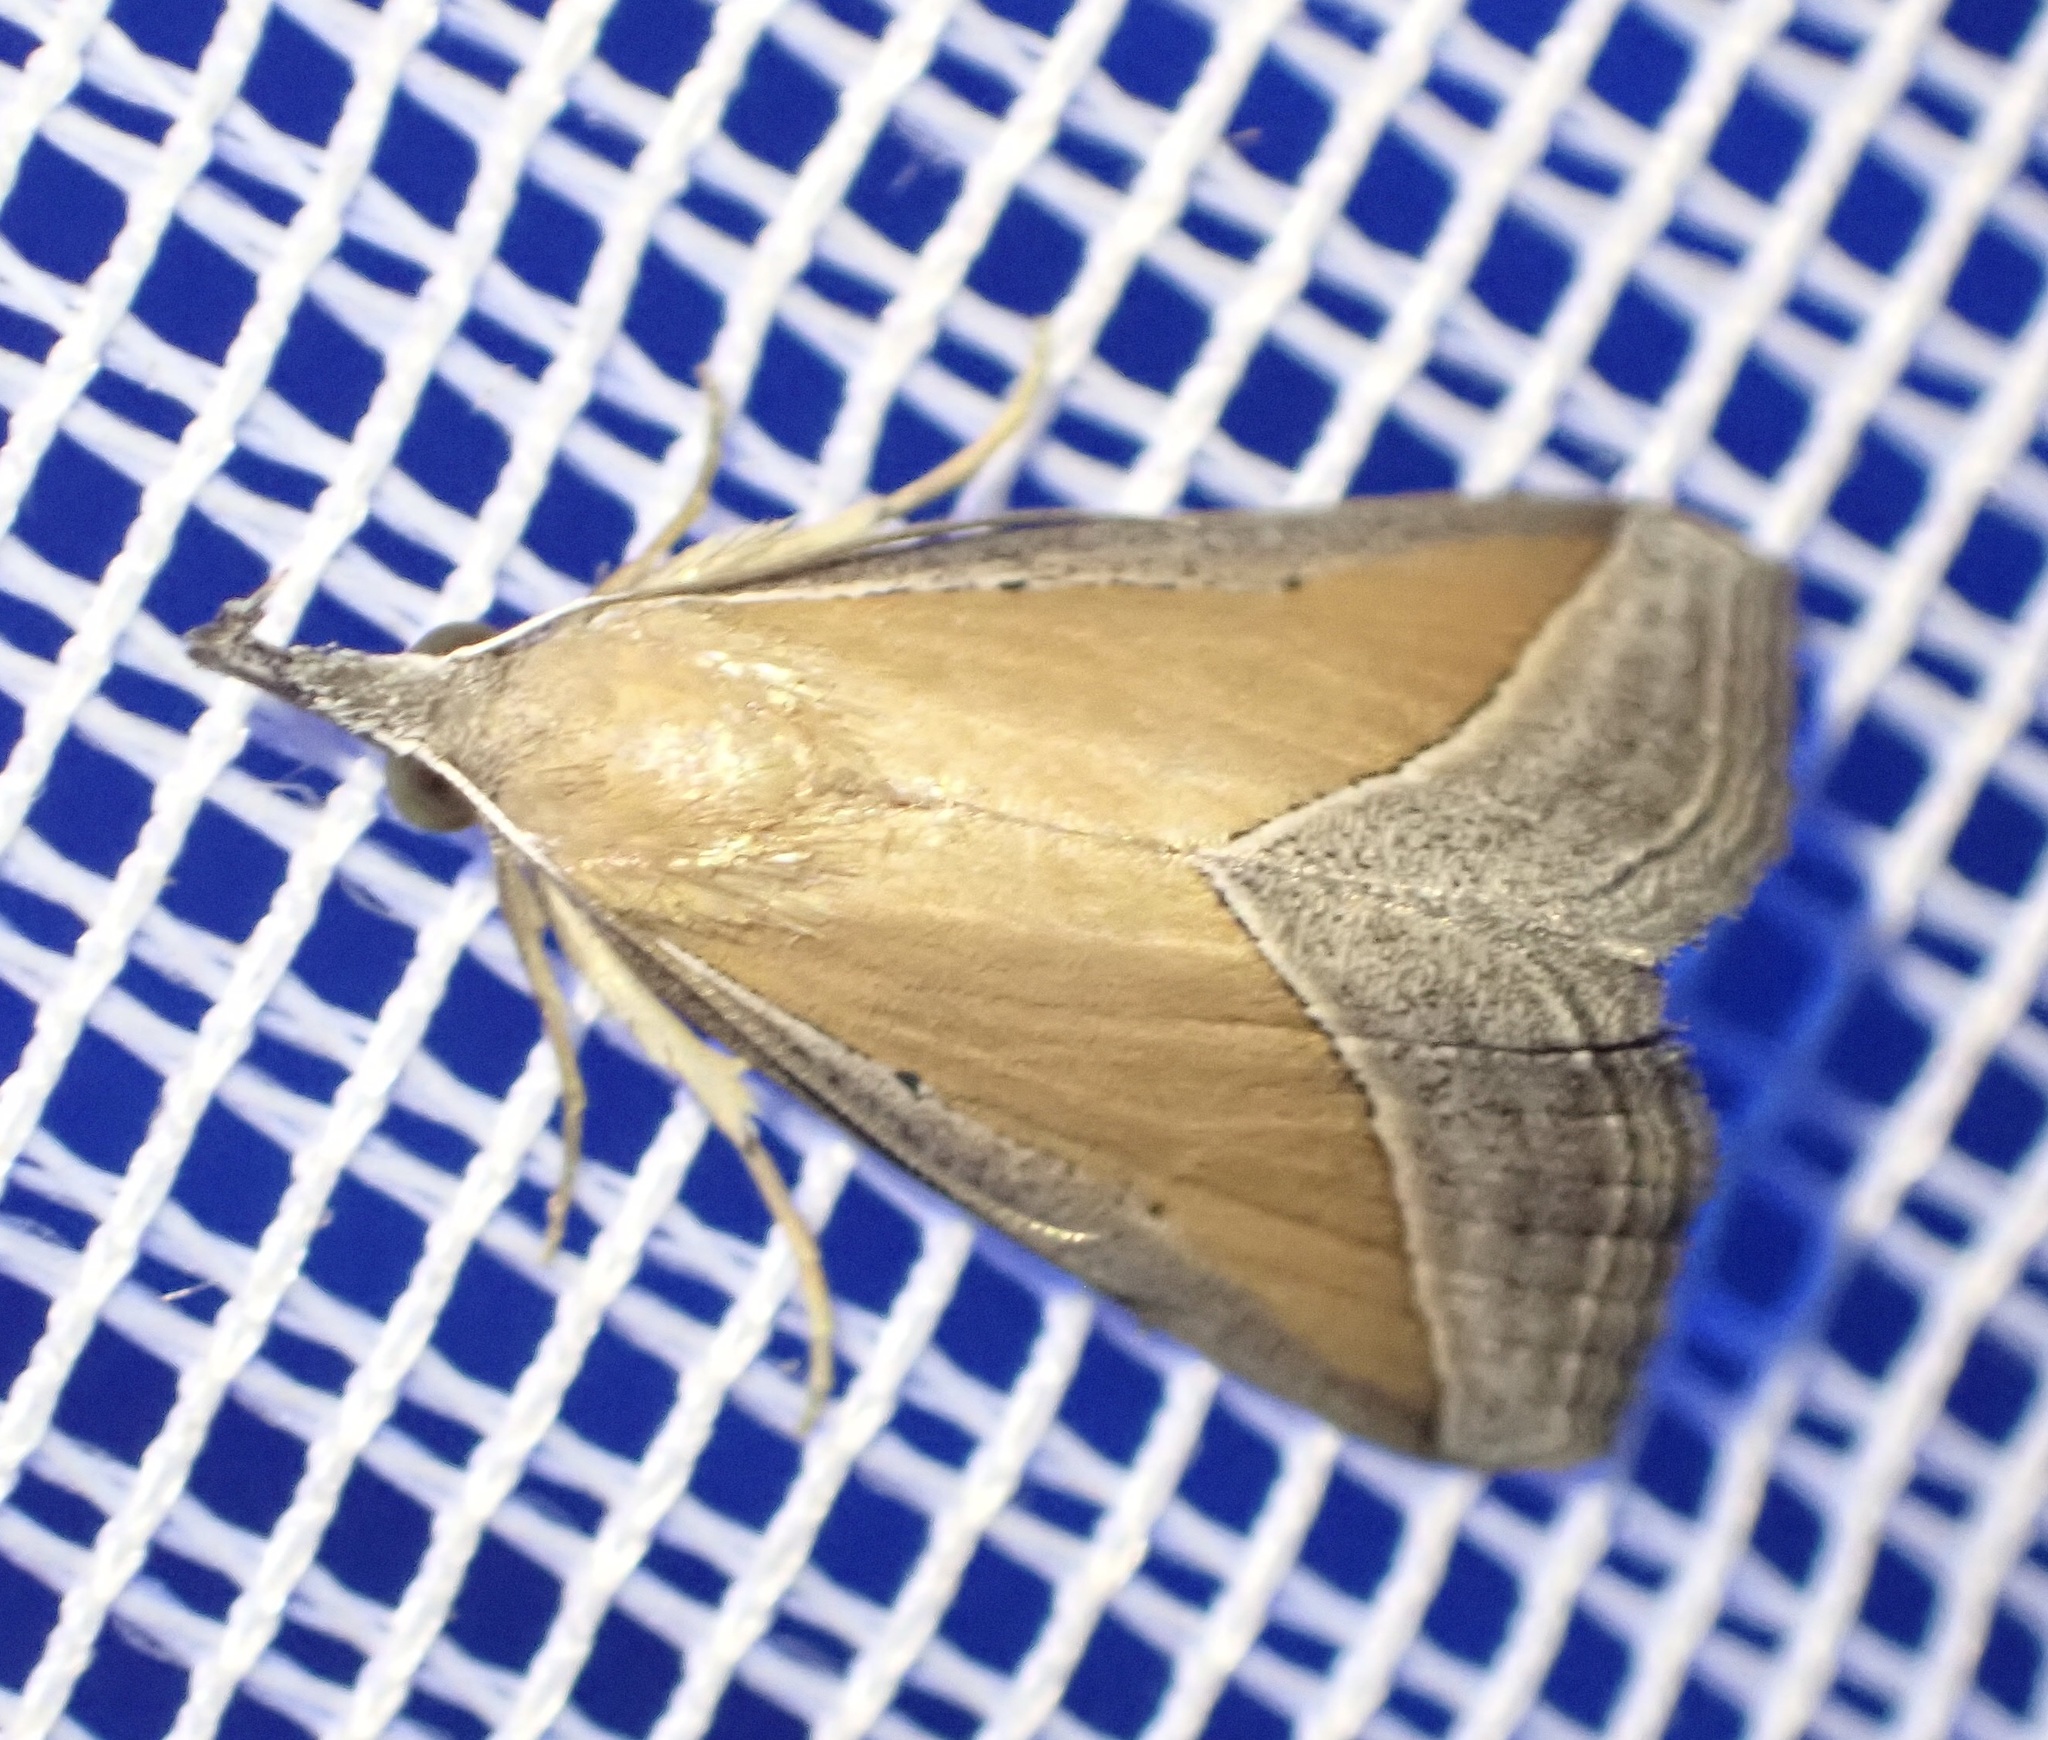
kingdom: Animalia
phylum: Arthropoda
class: Insecta
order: Lepidoptera
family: Erebidae
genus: Hypena
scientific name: Hypena conscitalis
